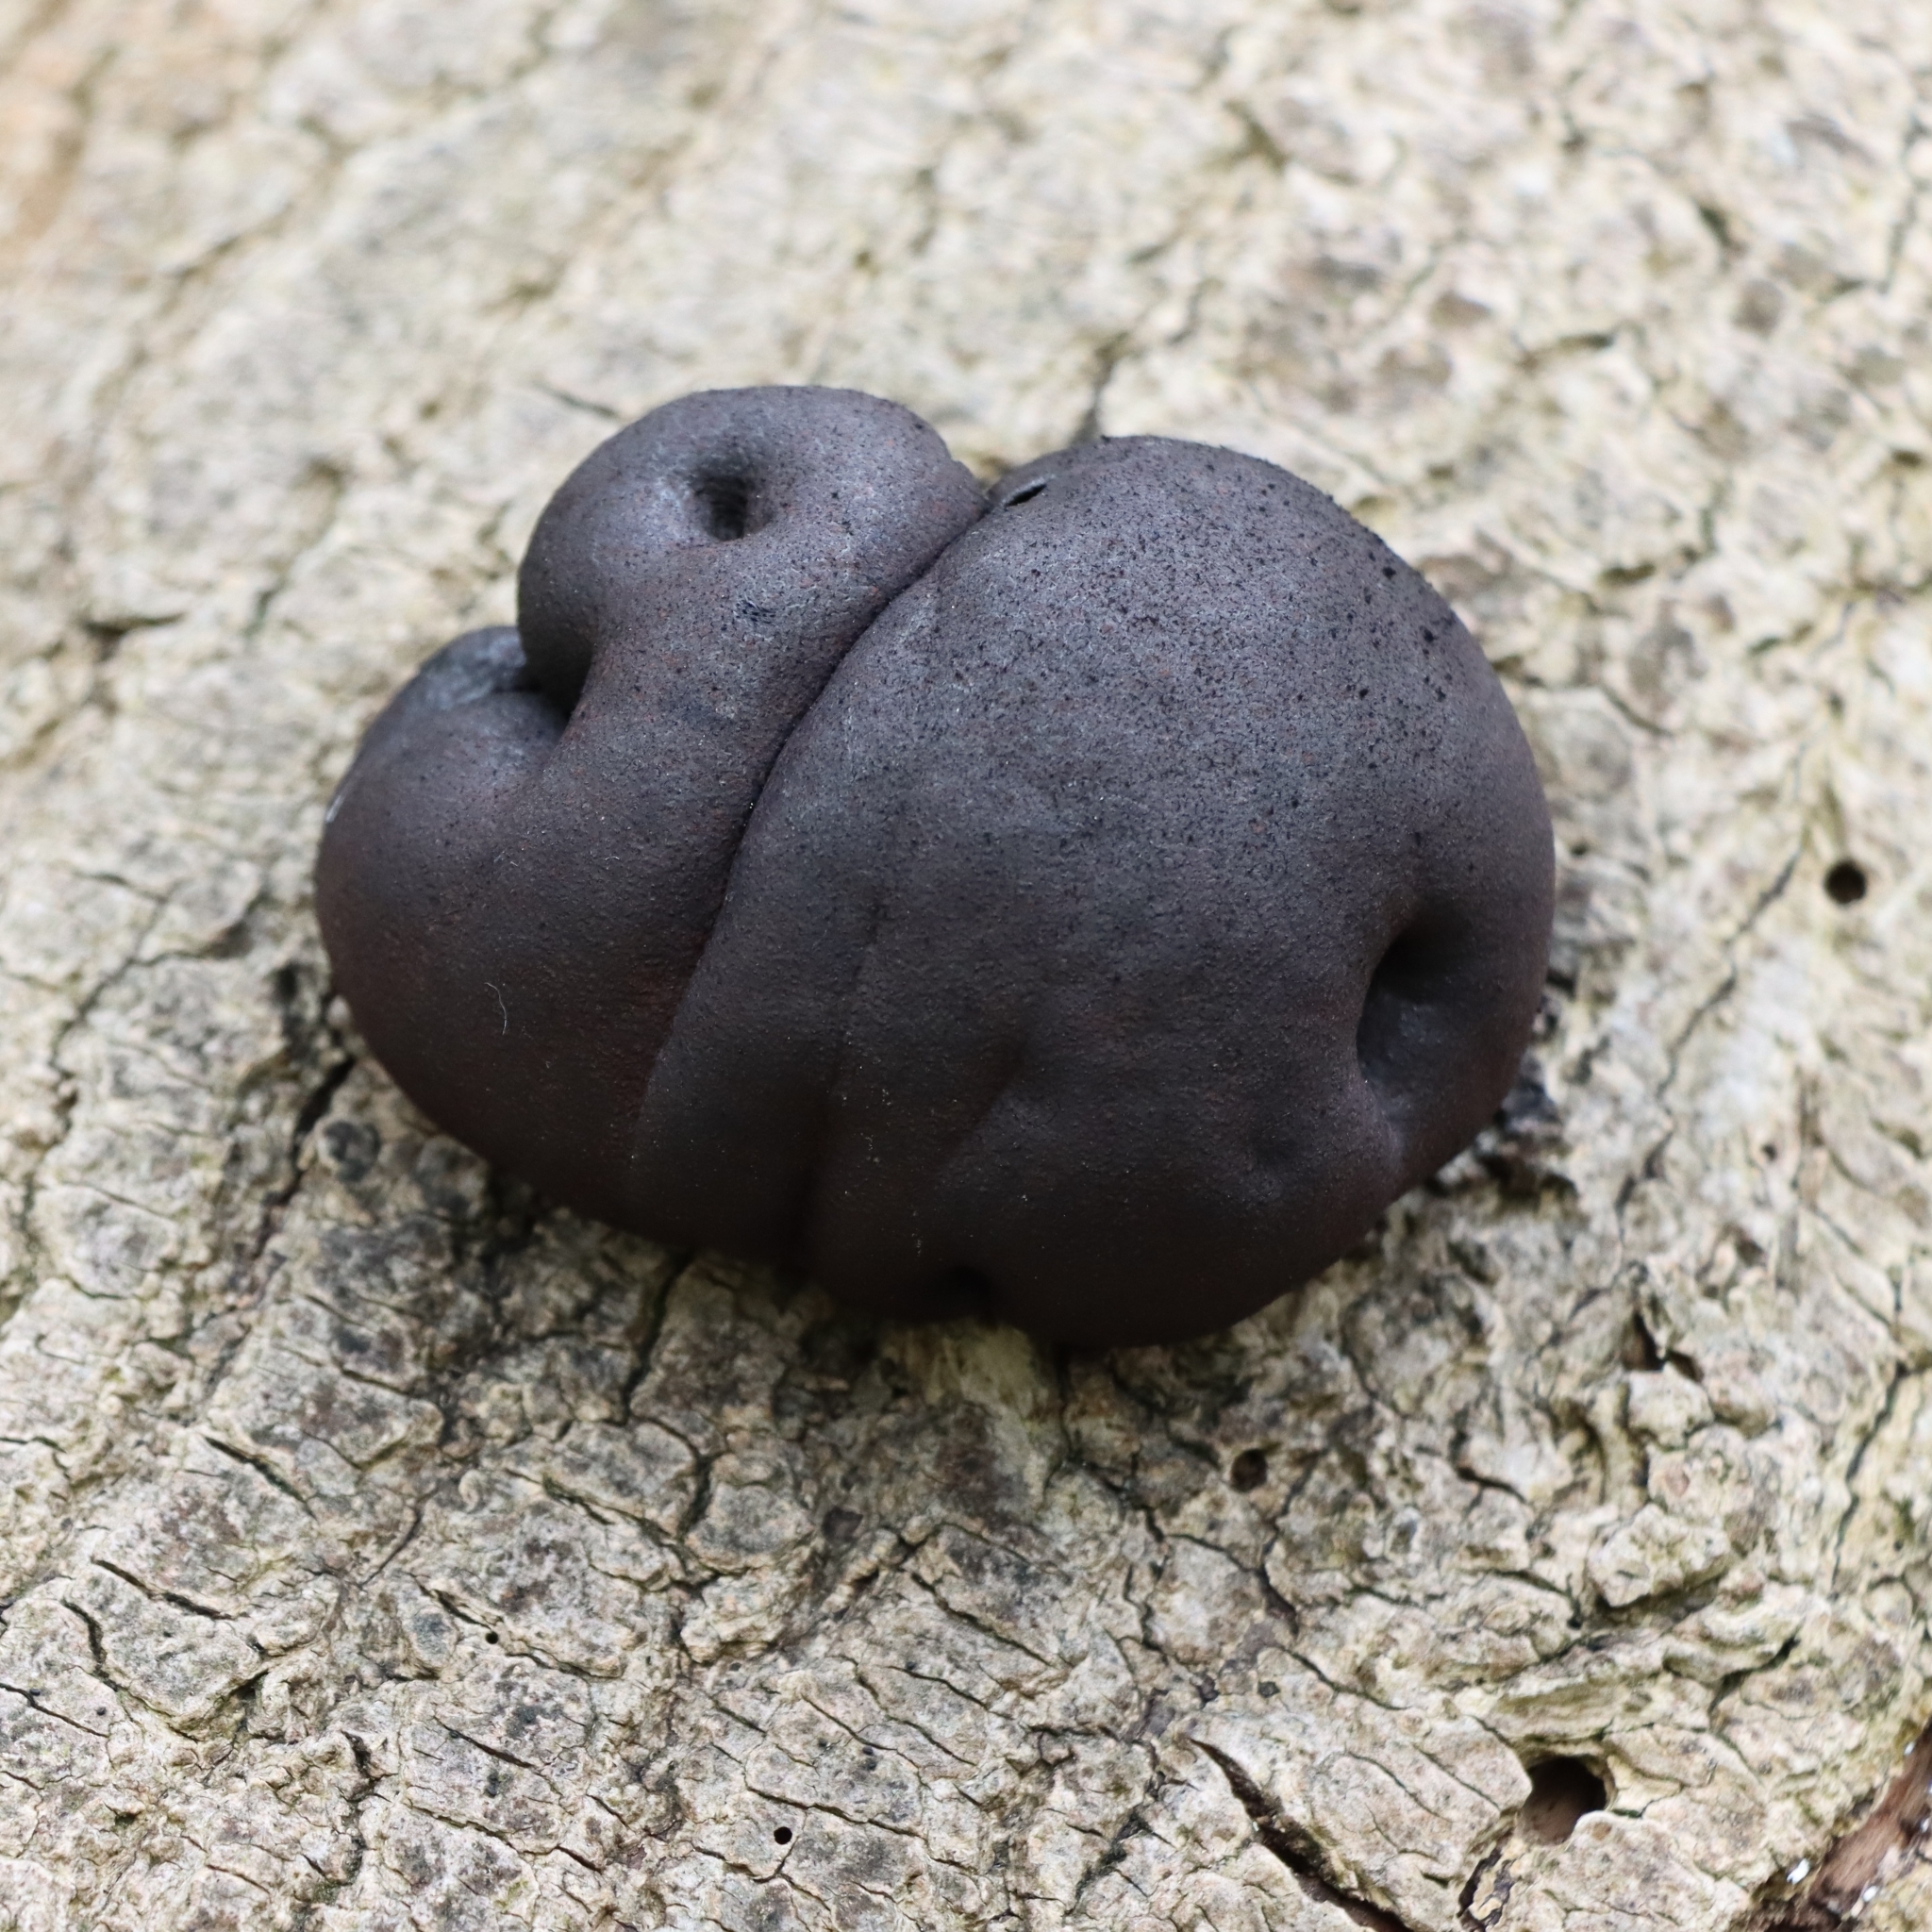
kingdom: Fungi
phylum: Ascomycota
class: Sordariomycetes
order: Xylariales
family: Hypoxylaceae
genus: Daldinia
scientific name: Daldinia concentrica
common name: Cramp balls
